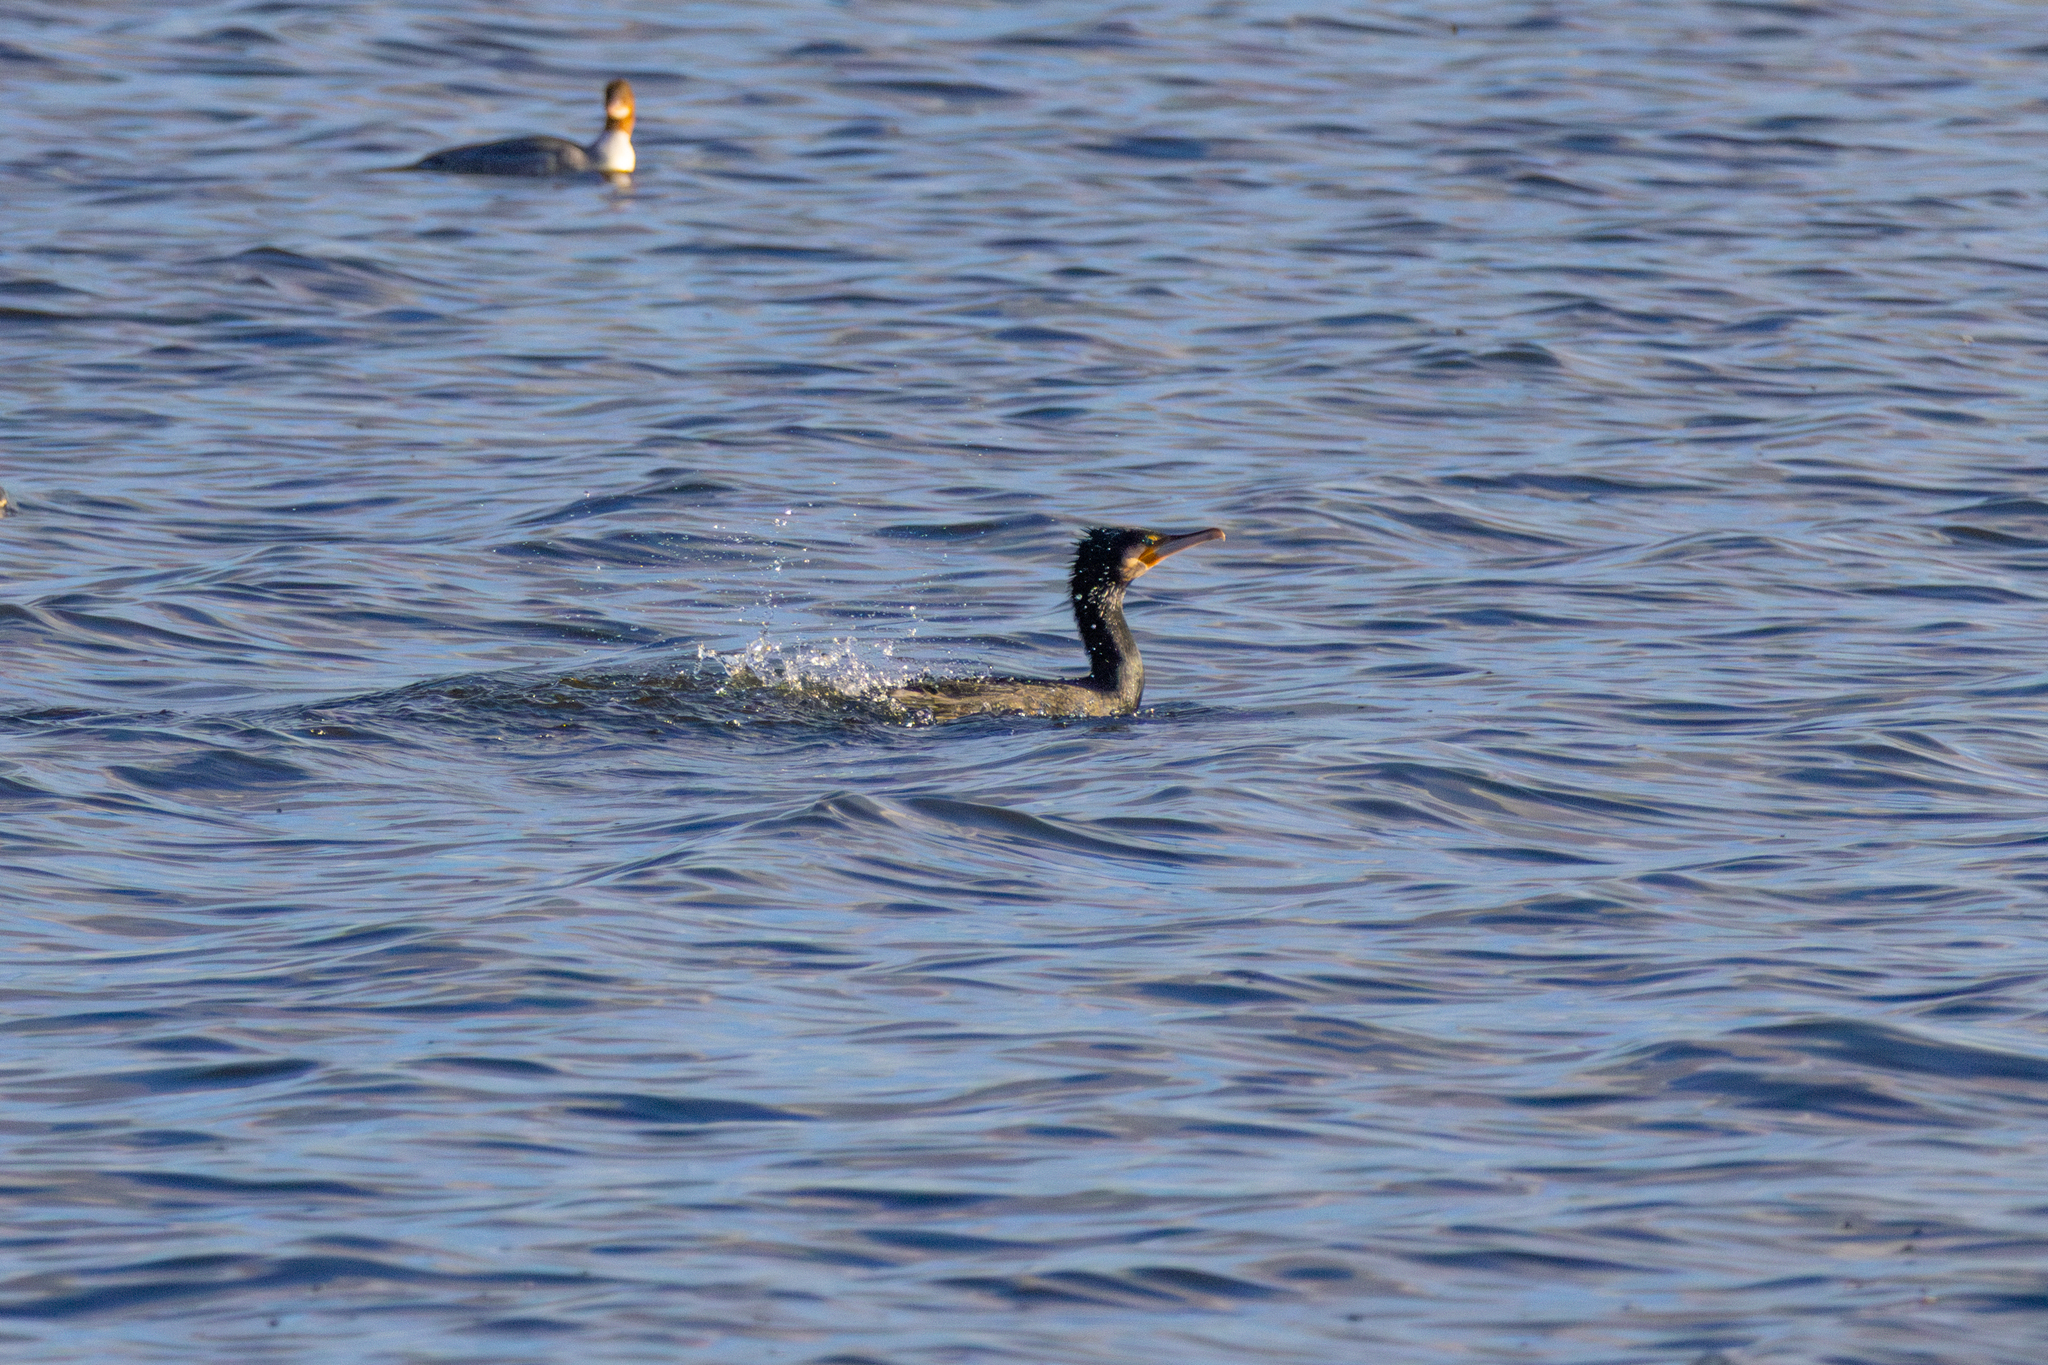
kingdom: Animalia
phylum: Chordata
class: Aves
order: Suliformes
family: Phalacrocoracidae
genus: Phalacrocorax
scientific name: Phalacrocorax carbo
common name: Great cormorant
